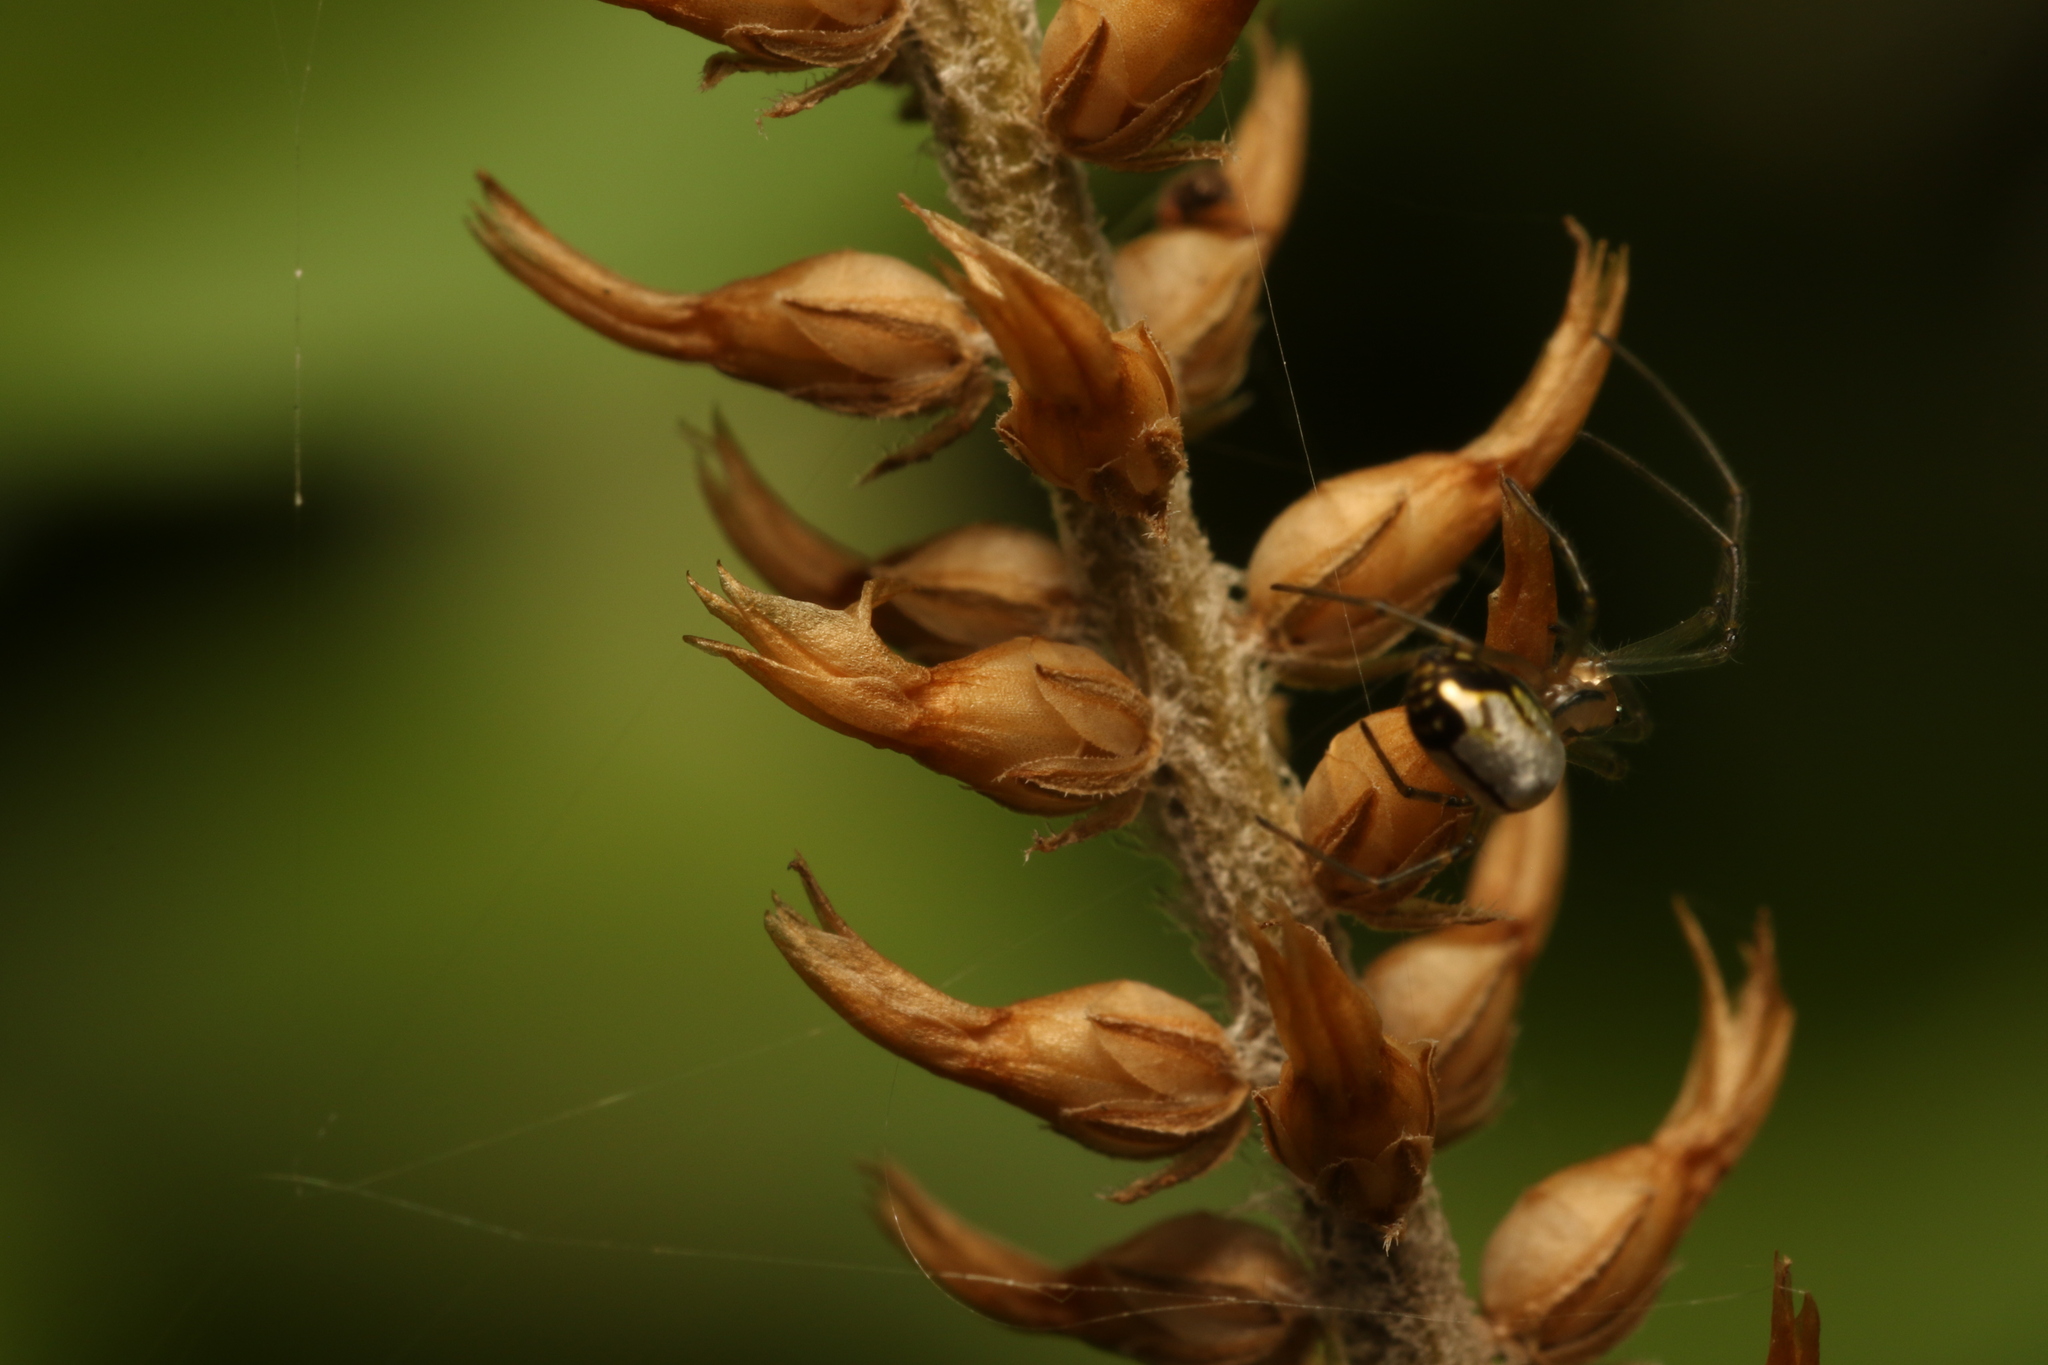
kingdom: Animalia
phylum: Arthropoda
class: Arachnida
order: Araneae
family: Tetragnathidae
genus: Leucauge
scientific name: Leucauge volupis
